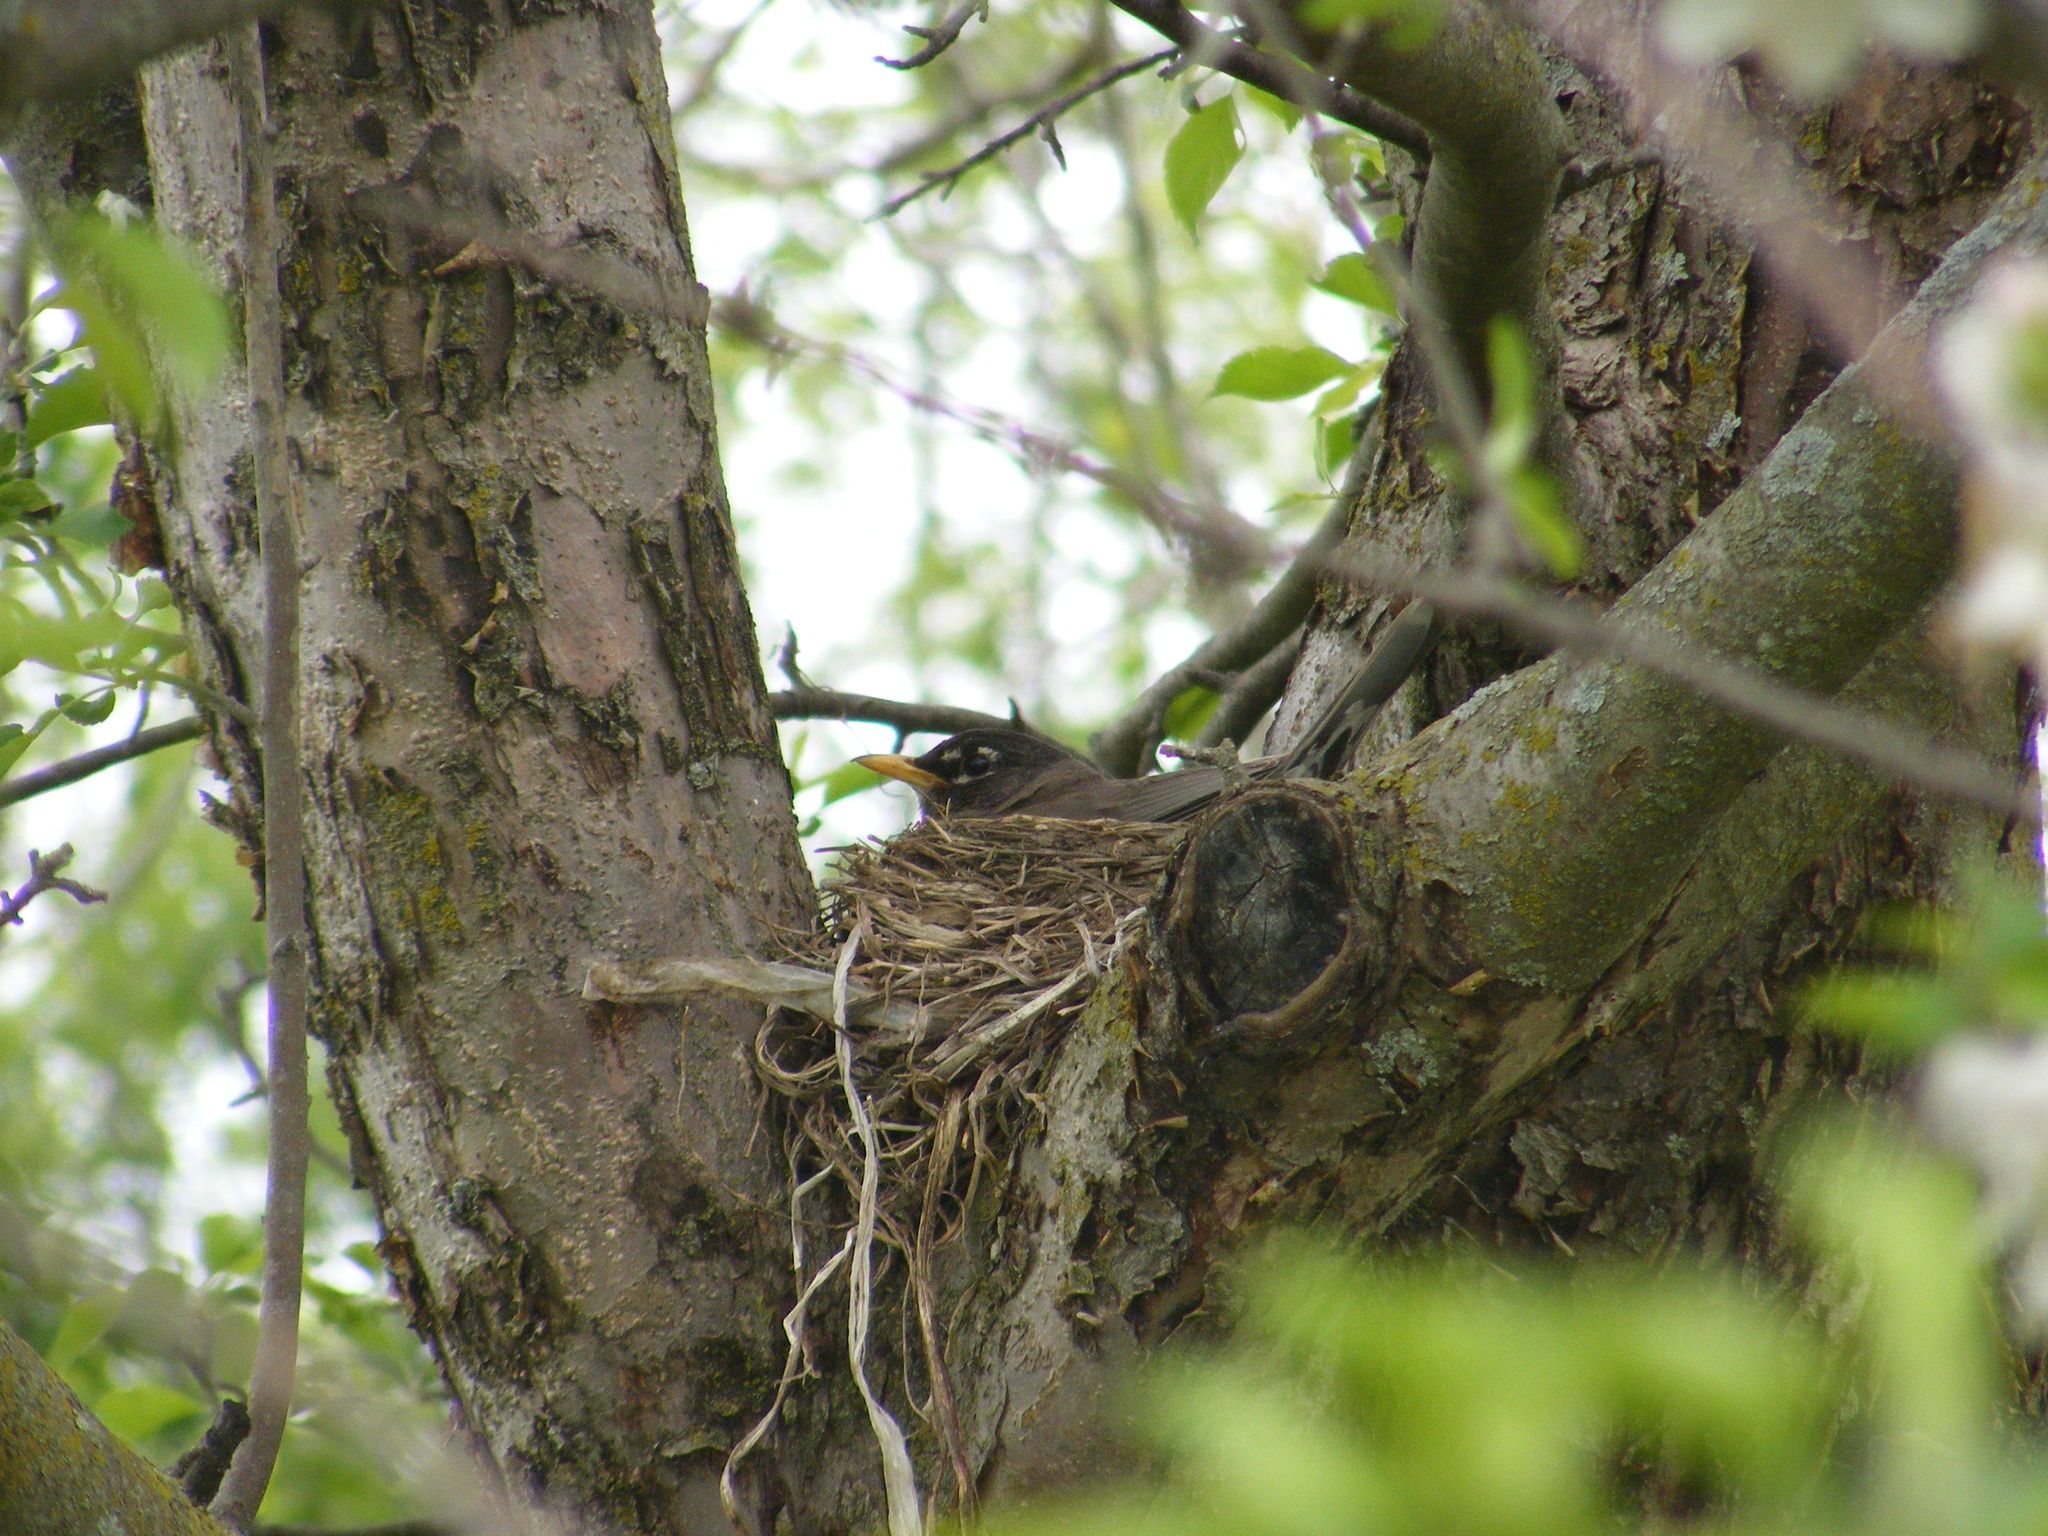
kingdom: Animalia
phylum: Chordata
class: Aves
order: Passeriformes
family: Turdidae
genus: Turdus
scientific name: Turdus migratorius
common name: American robin
